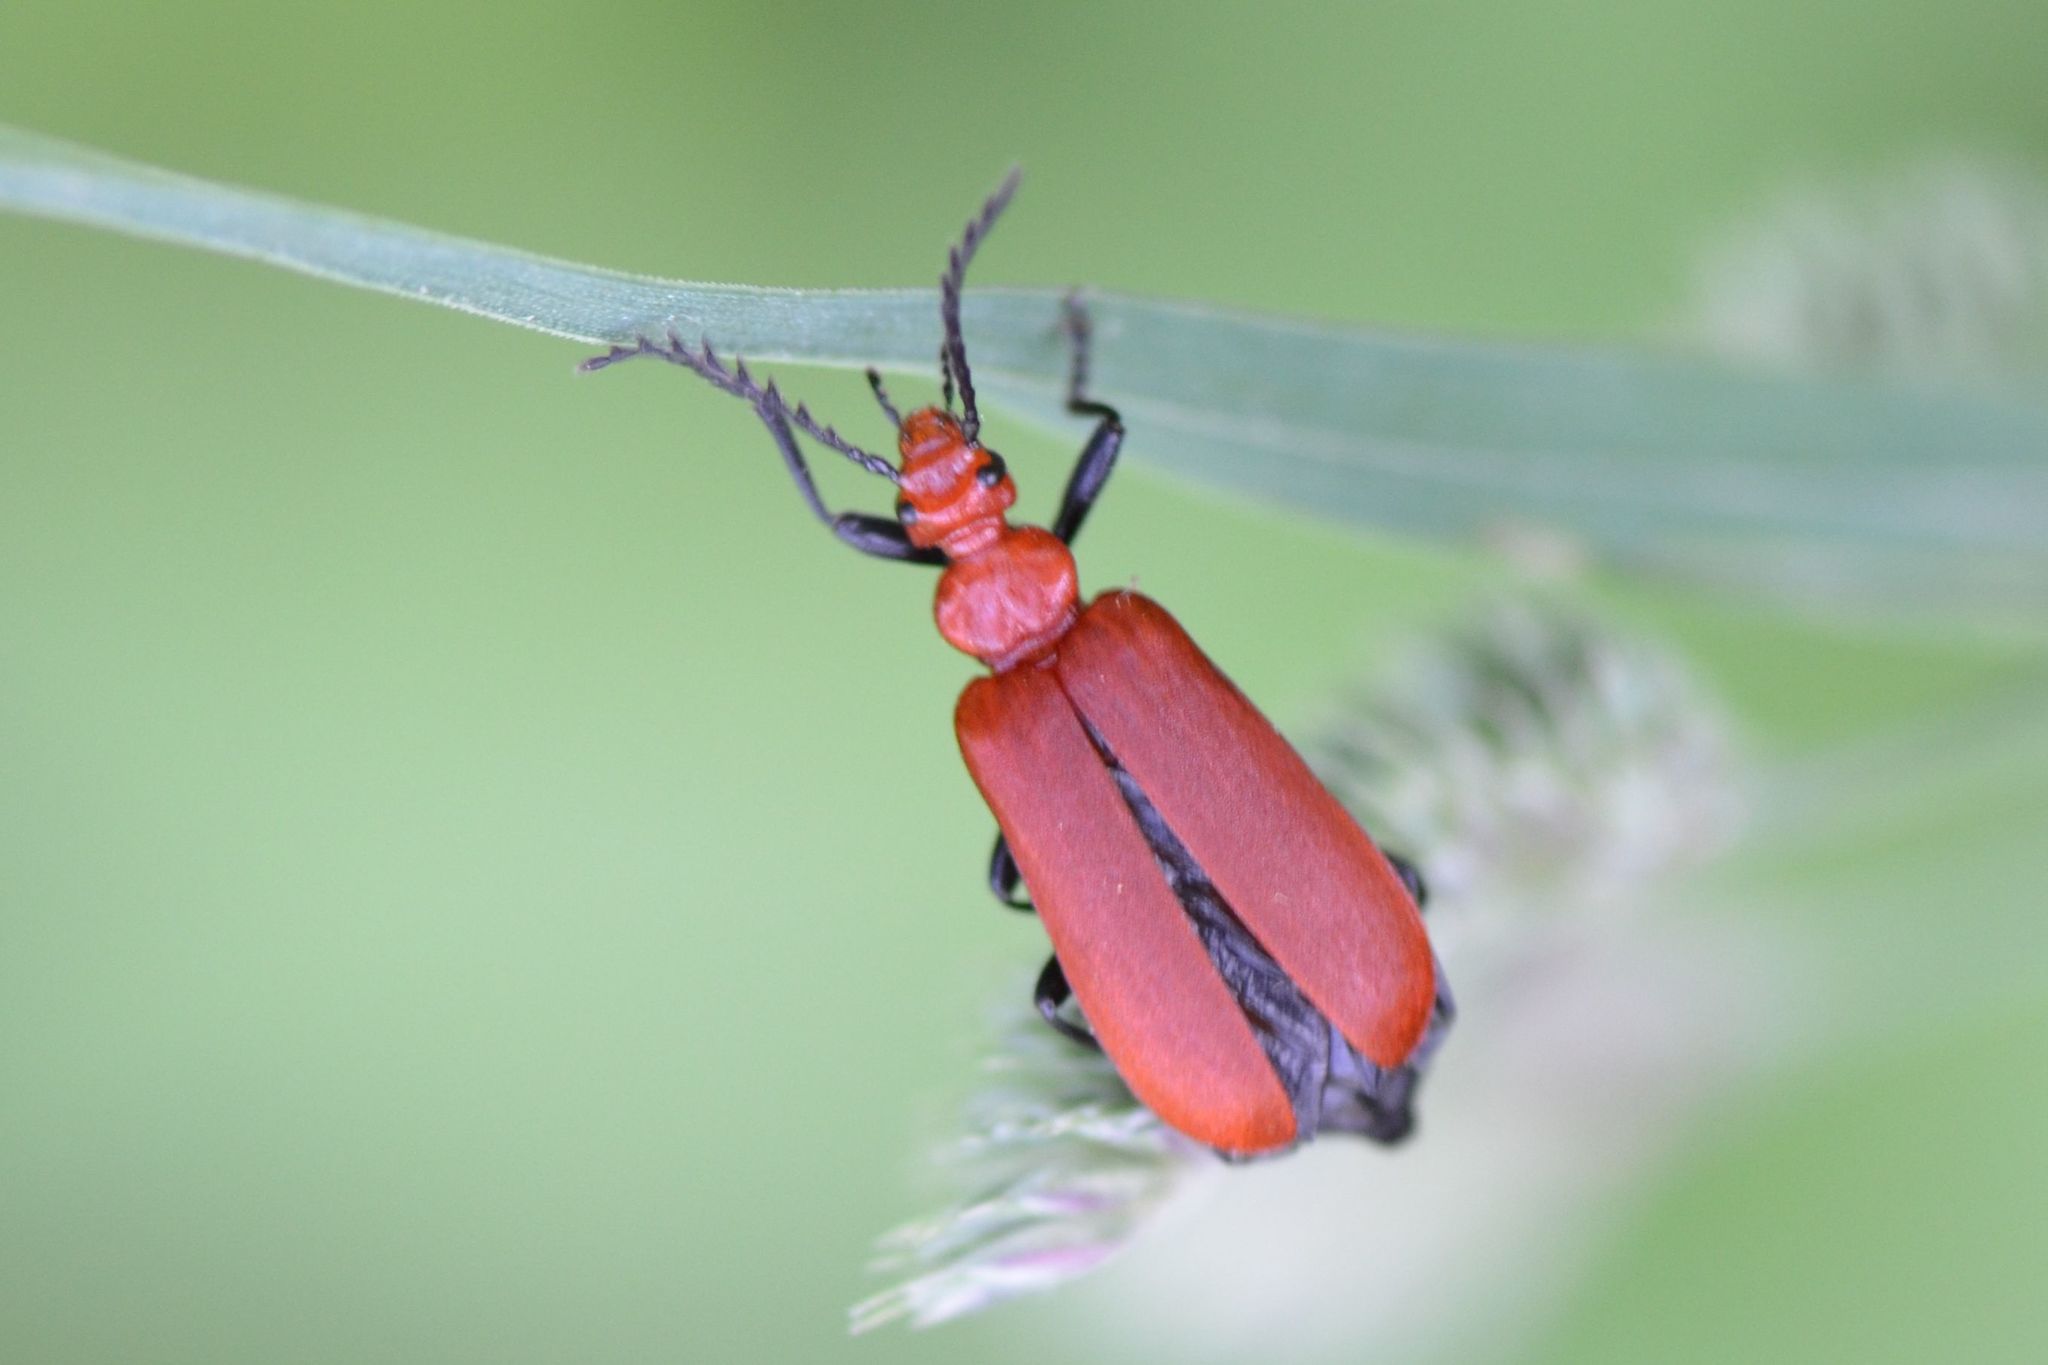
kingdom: Animalia
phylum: Arthropoda
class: Insecta
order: Coleoptera
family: Pyrochroidae
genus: Pyrochroa
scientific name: Pyrochroa serraticornis
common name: Red-headed cardinal beetle
